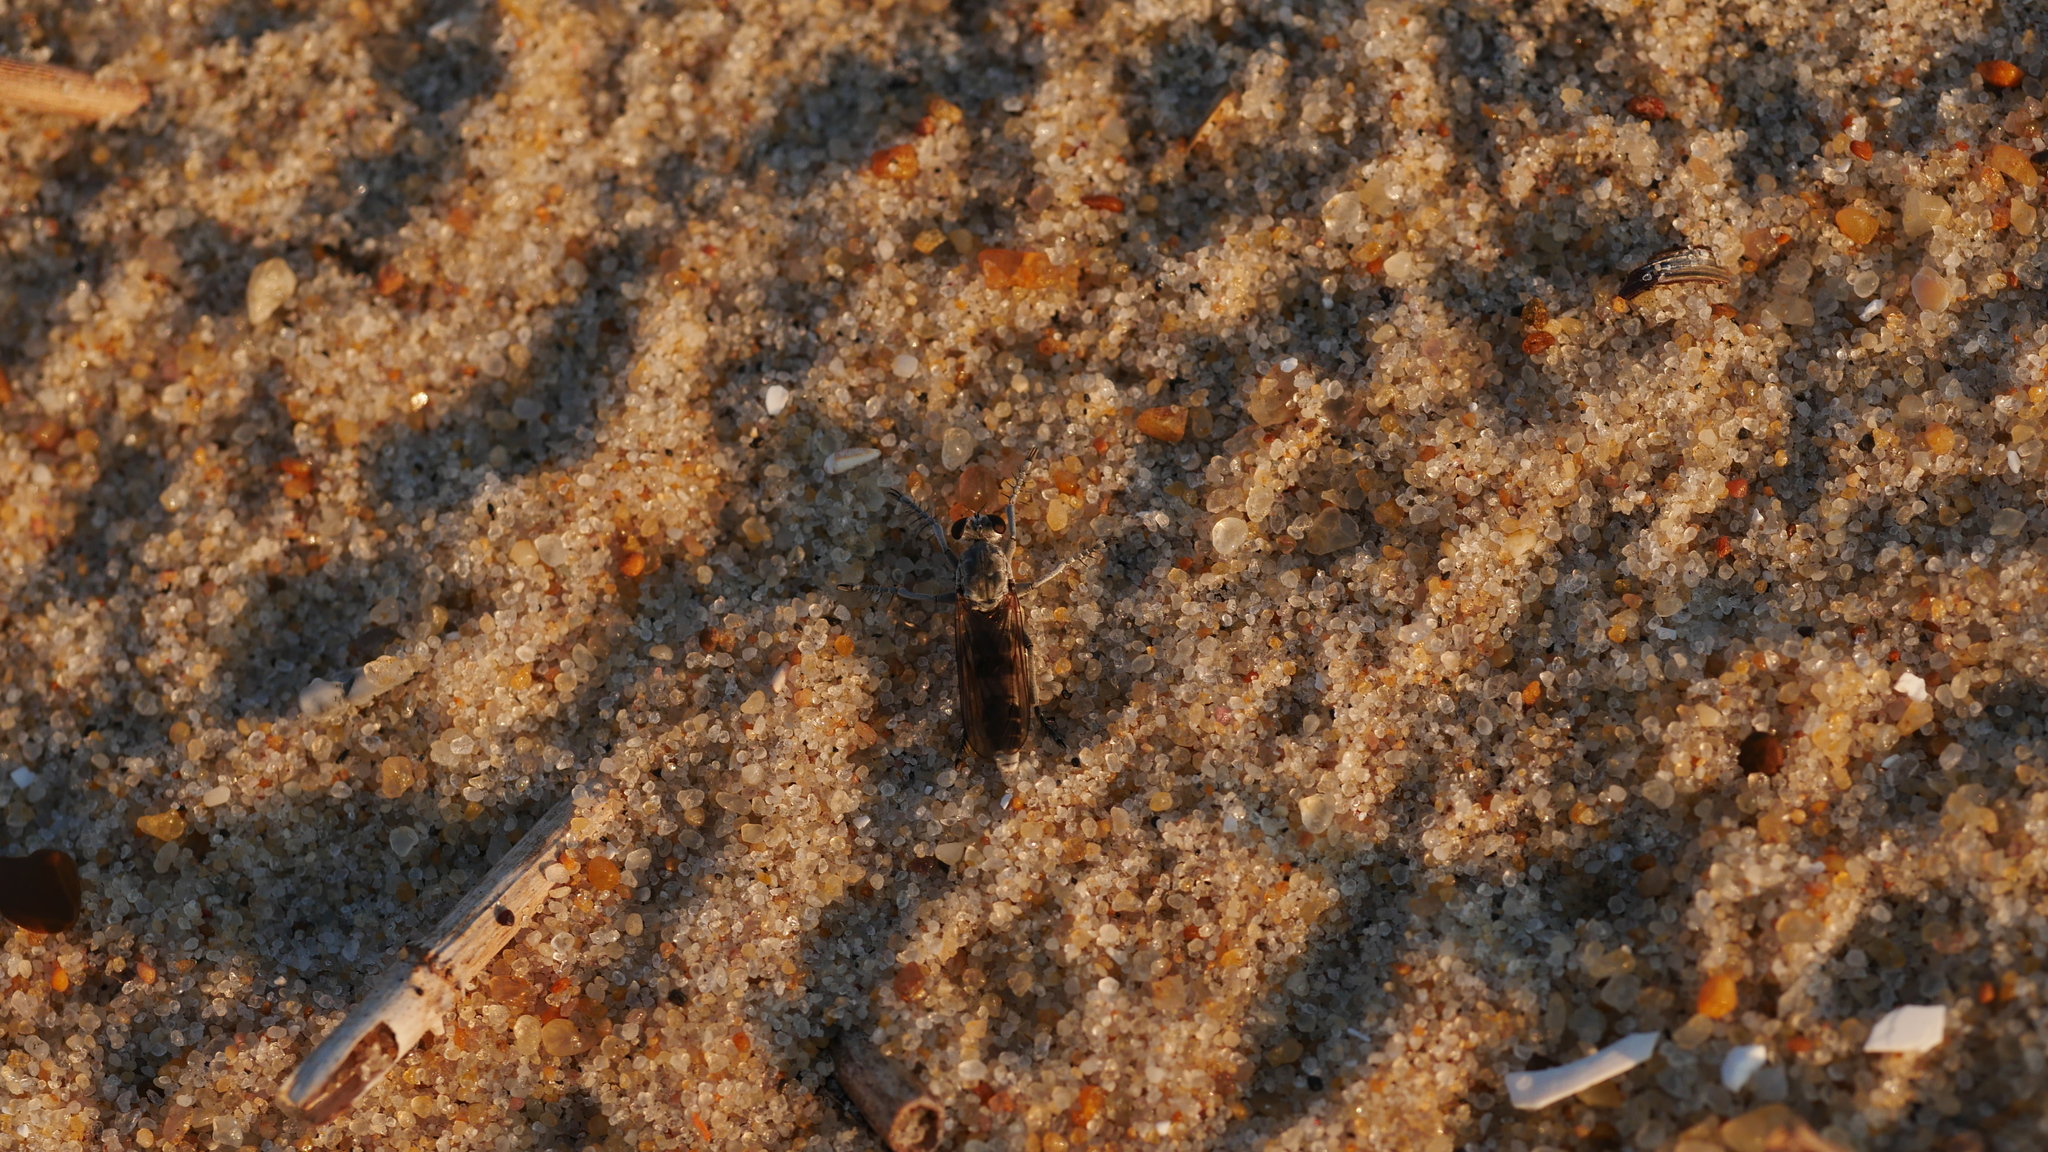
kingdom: Animalia
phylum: Arthropoda
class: Insecta
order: Diptera
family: Asilidae
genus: Stichopogon
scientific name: Stichopogon trifasciatus
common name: Three-banded robber fly
